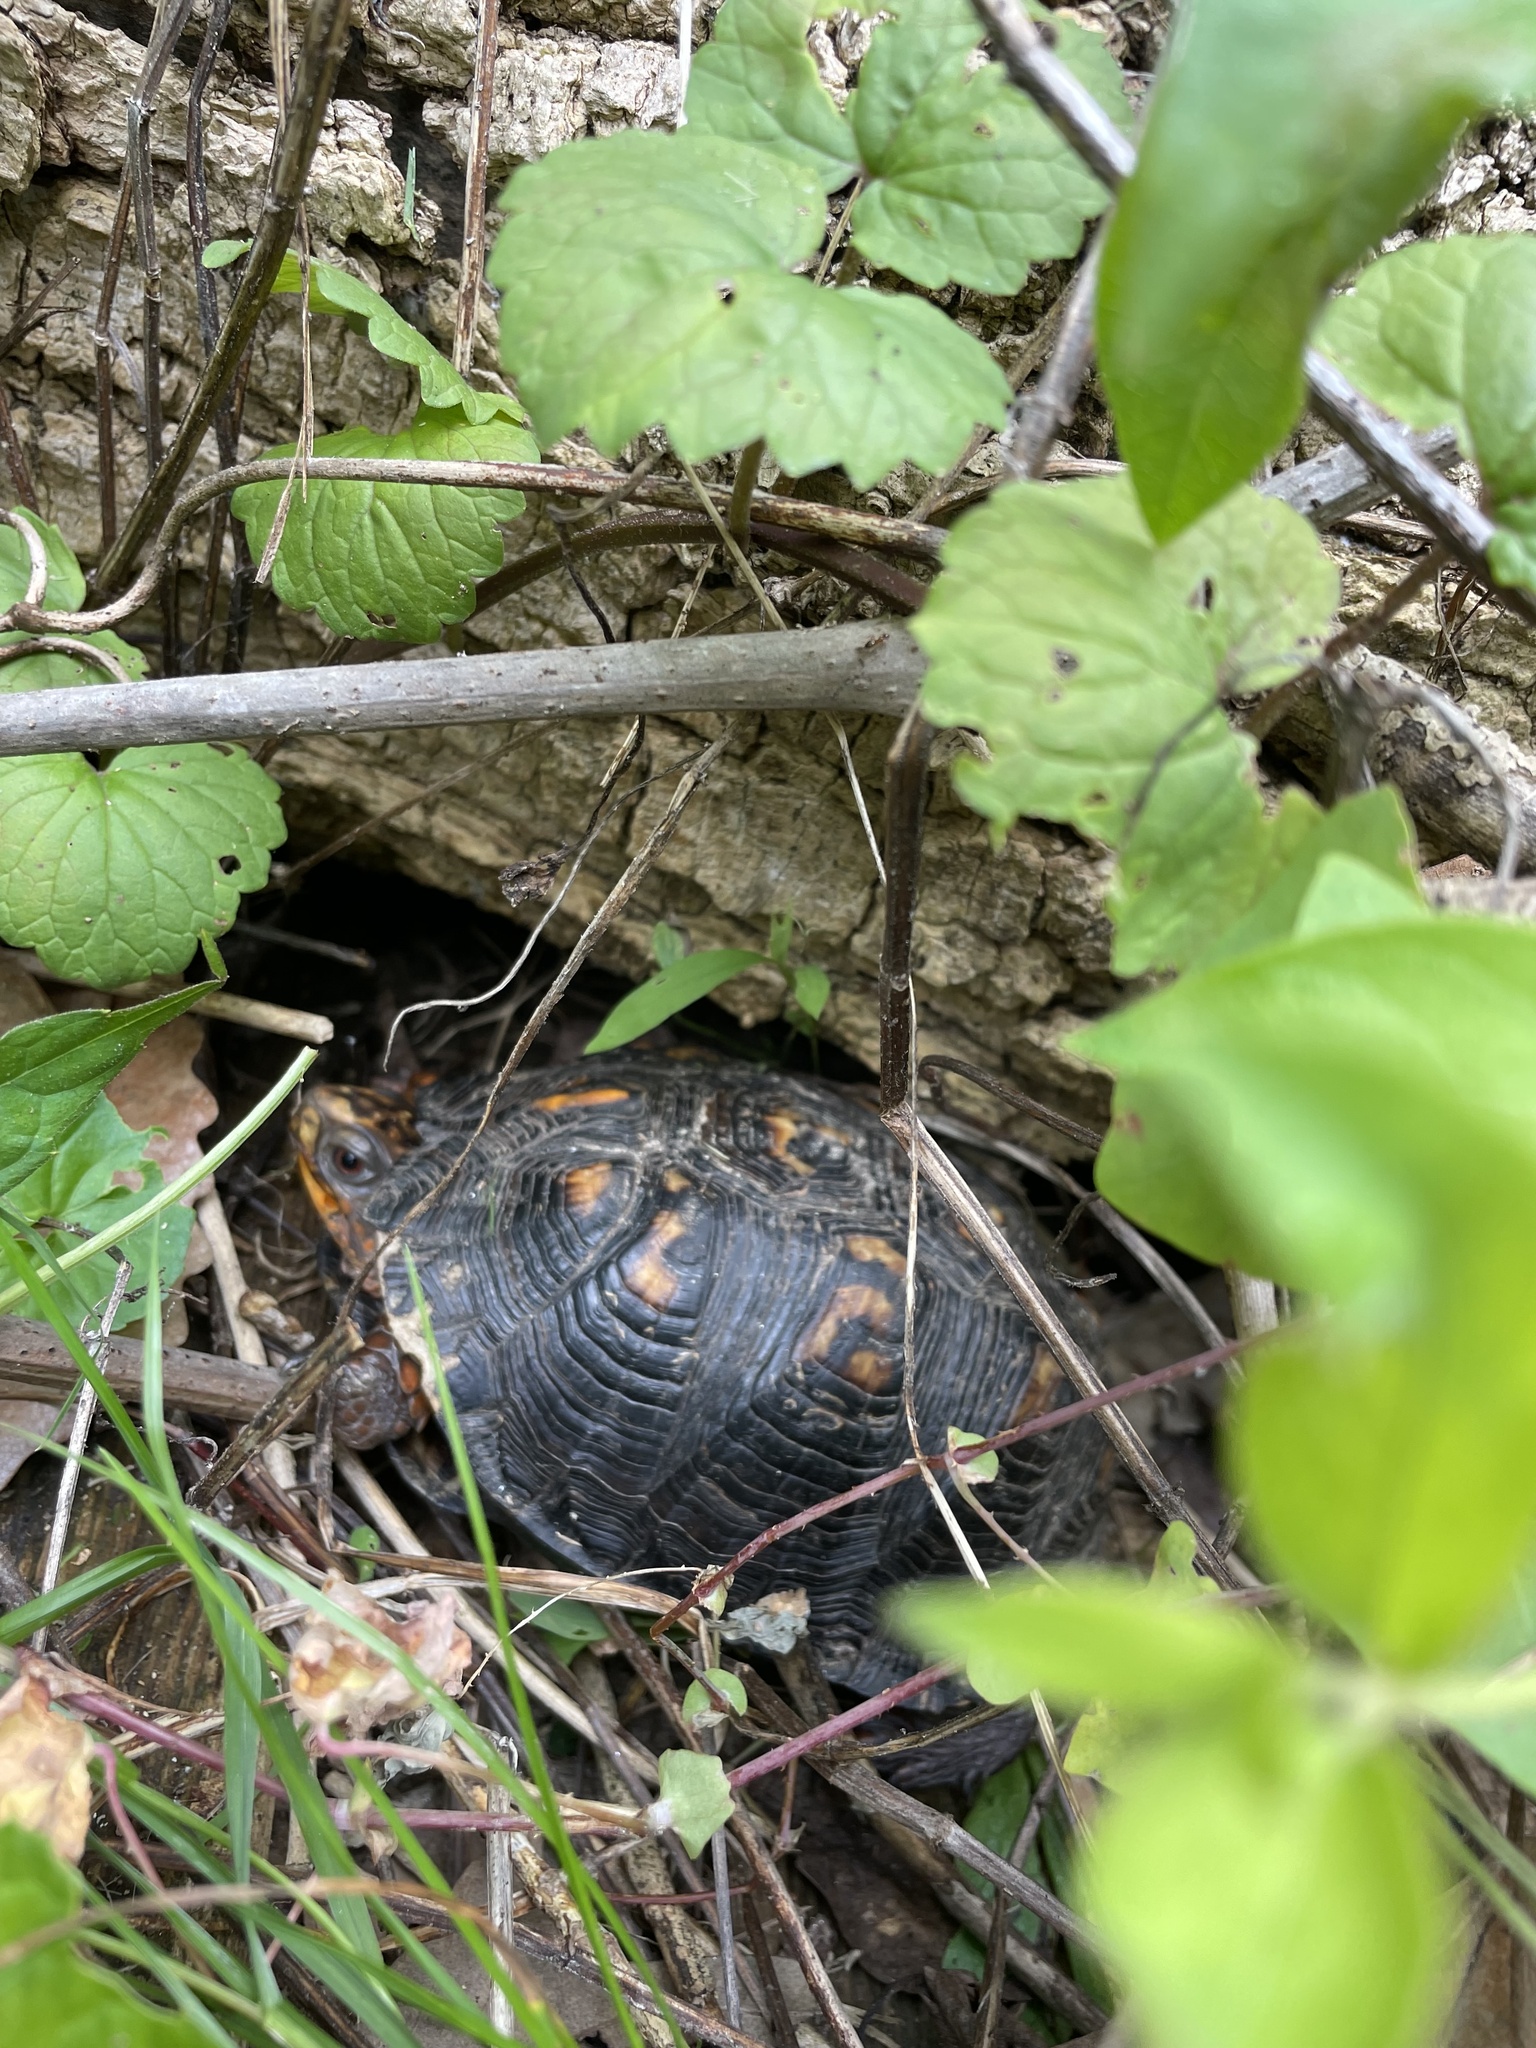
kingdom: Animalia
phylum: Chordata
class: Testudines
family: Emydidae
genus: Terrapene
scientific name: Terrapene carolina
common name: Common box turtle
